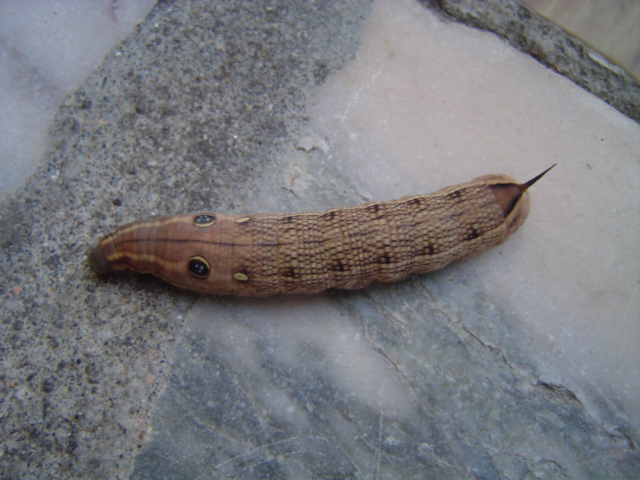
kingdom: Animalia
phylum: Arthropoda
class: Insecta
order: Lepidoptera
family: Sphingidae
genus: Hippotion
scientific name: Hippotion celerio
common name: Silver-striped hawk-moth
